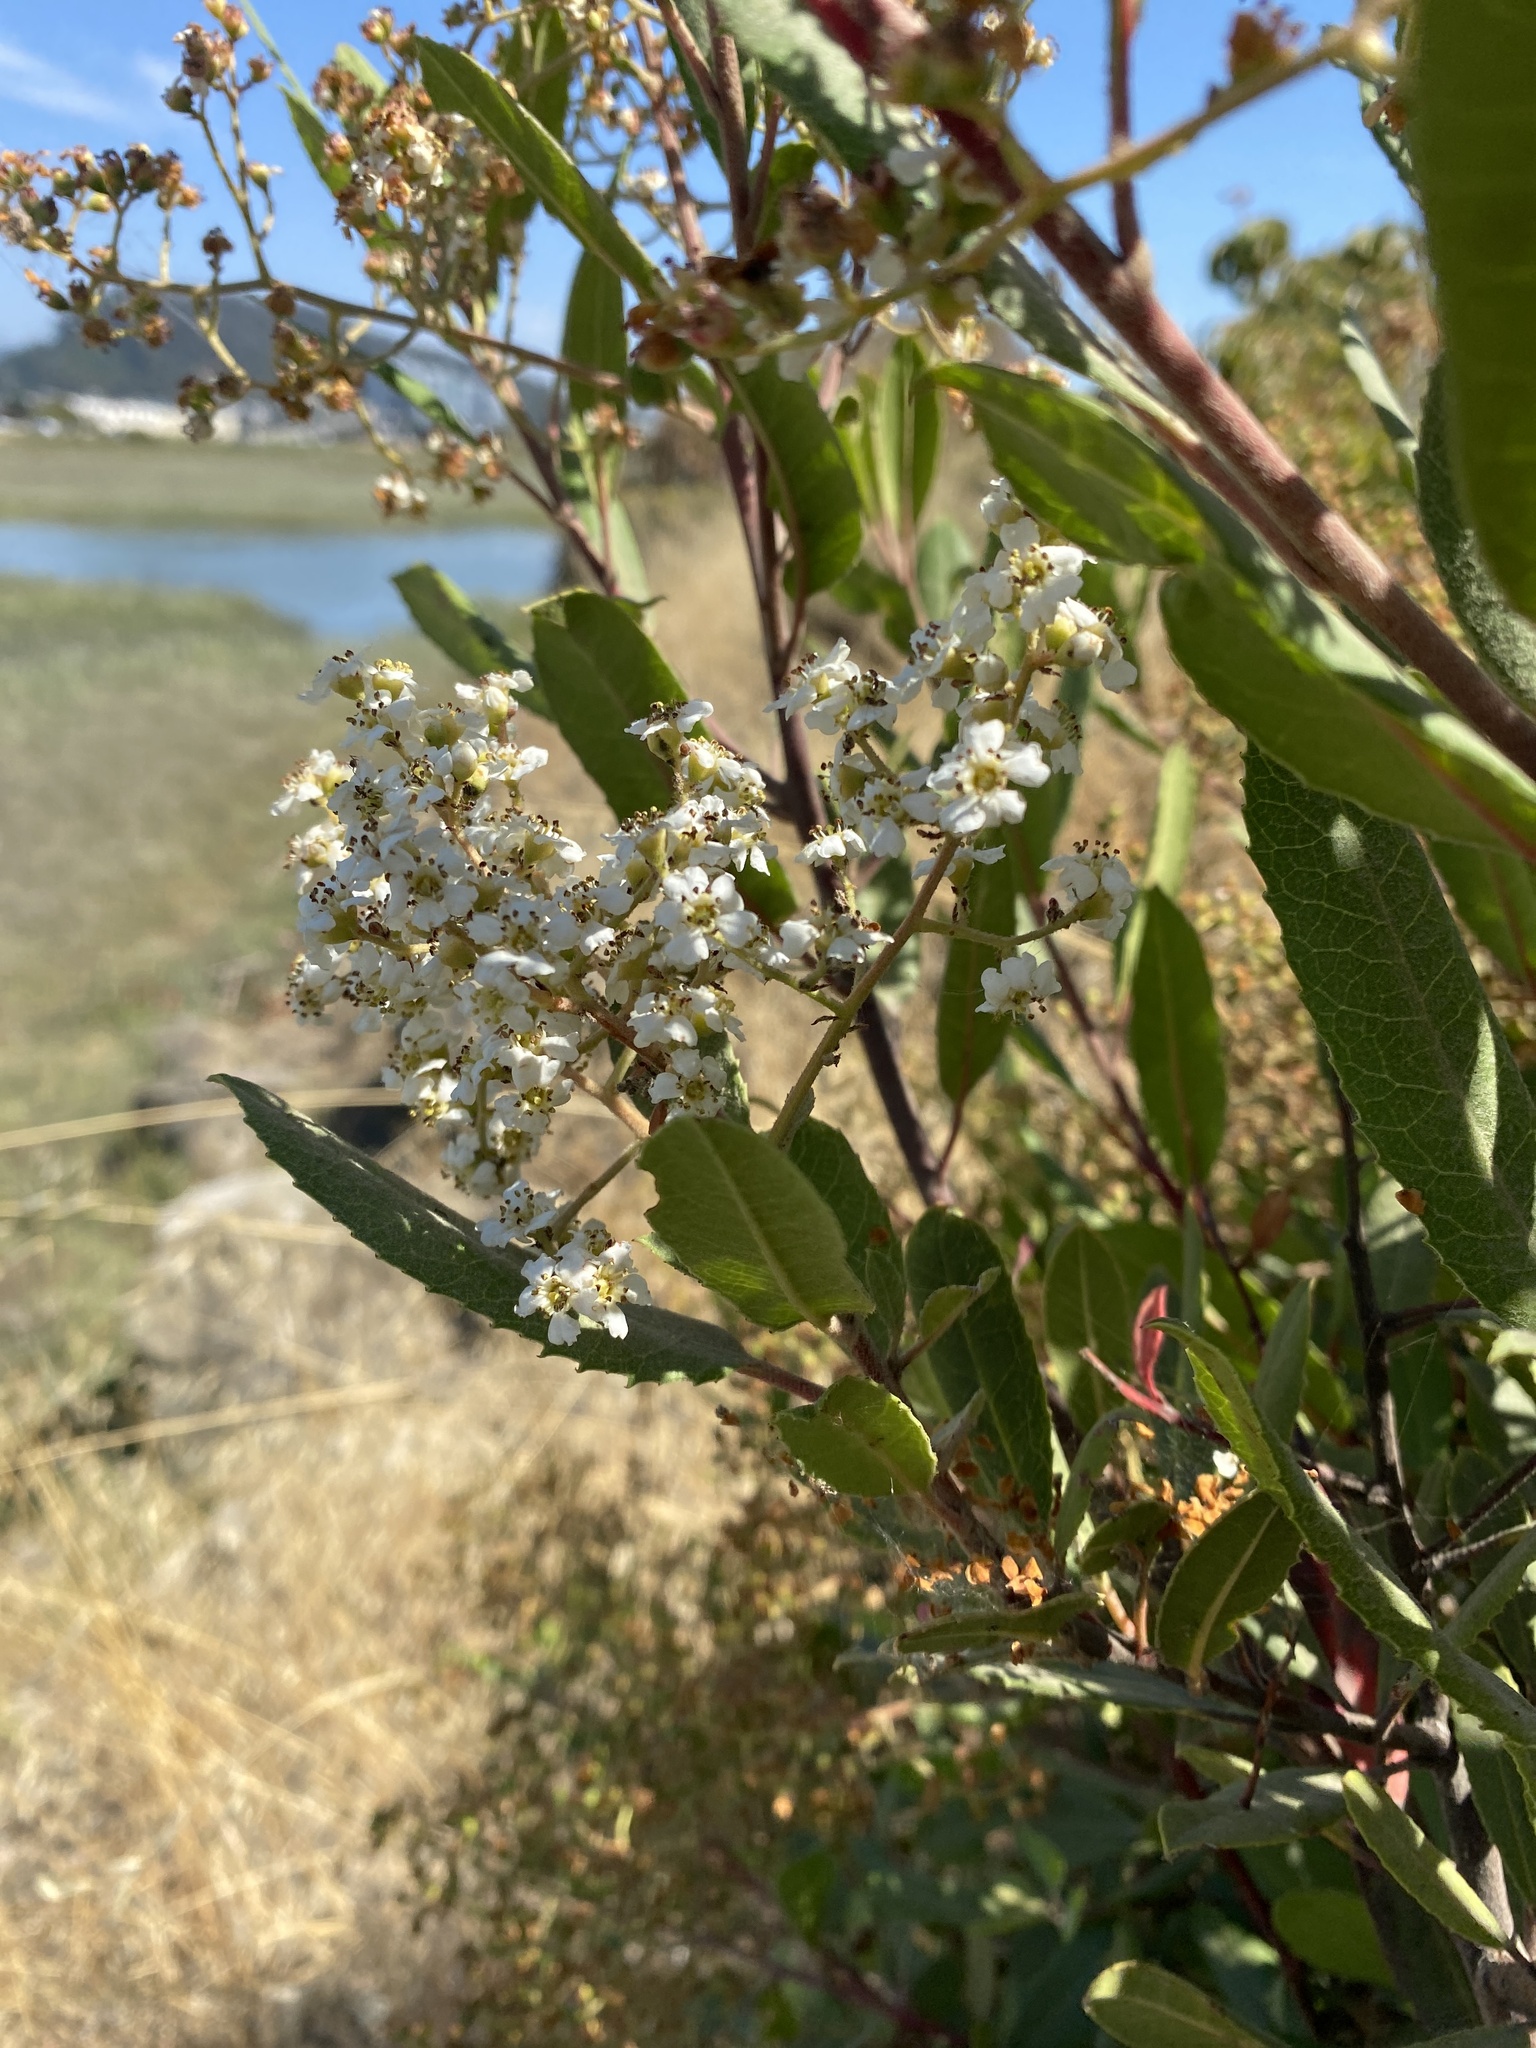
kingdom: Plantae
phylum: Tracheophyta
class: Magnoliopsida
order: Rosales
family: Rosaceae
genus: Heteromeles
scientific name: Heteromeles arbutifolia
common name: California-holly
